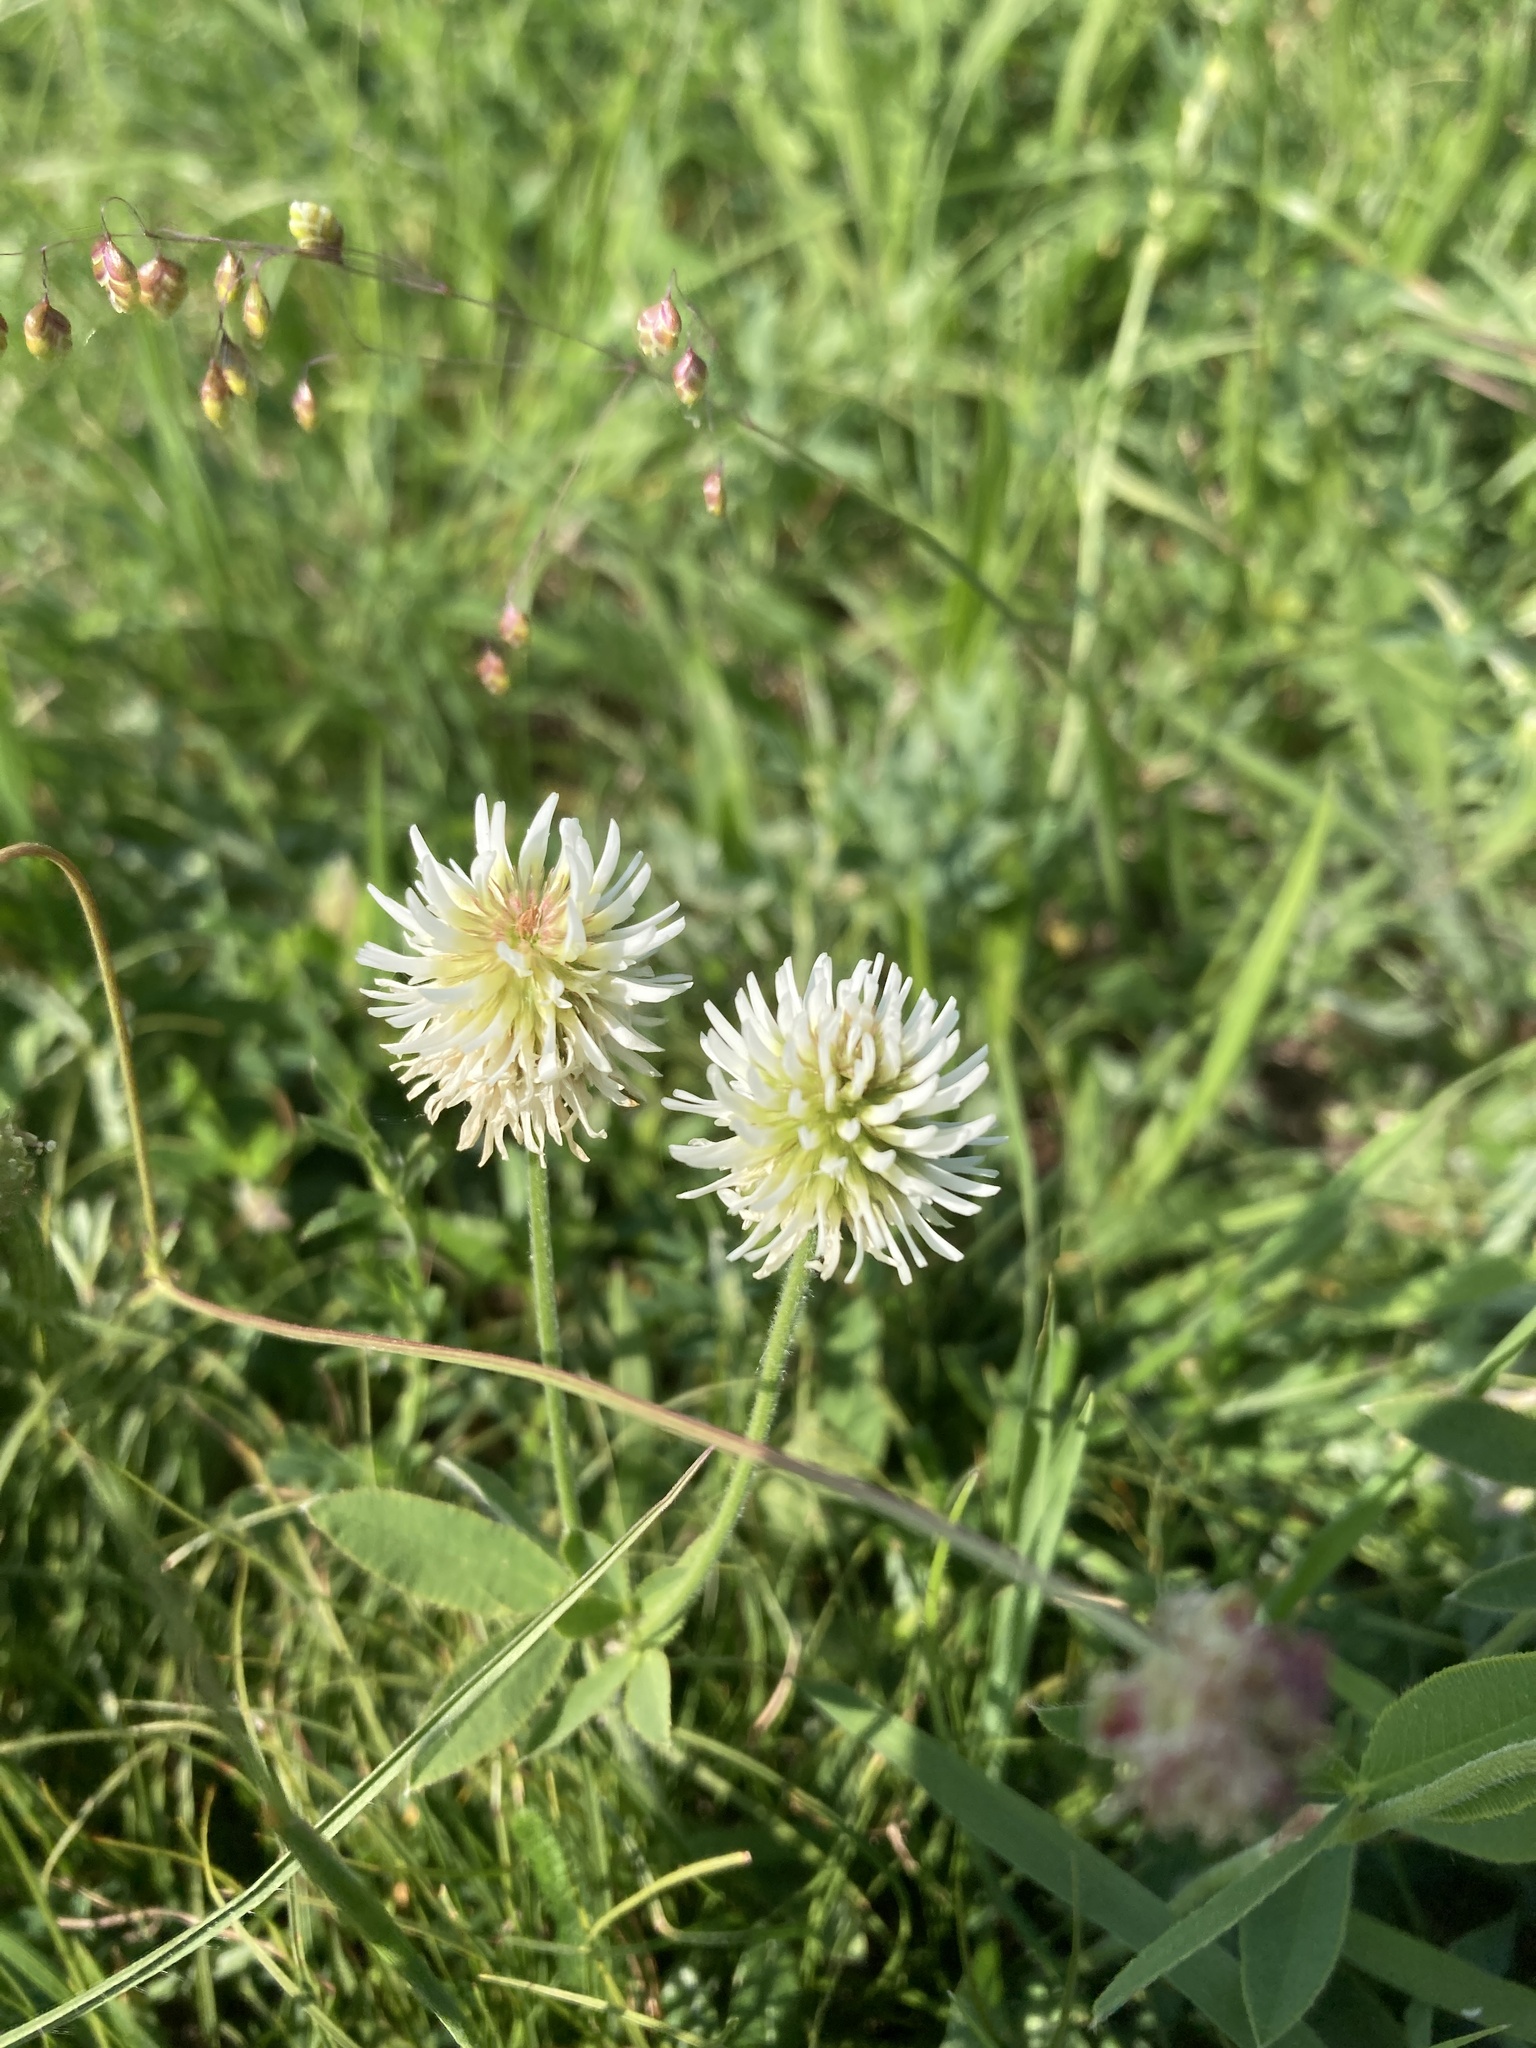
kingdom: Plantae
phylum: Tracheophyta
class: Magnoliopsida
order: Fabales
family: Fabaceae
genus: Trifolium
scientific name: Trifolium montanum
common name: Mountain clover
